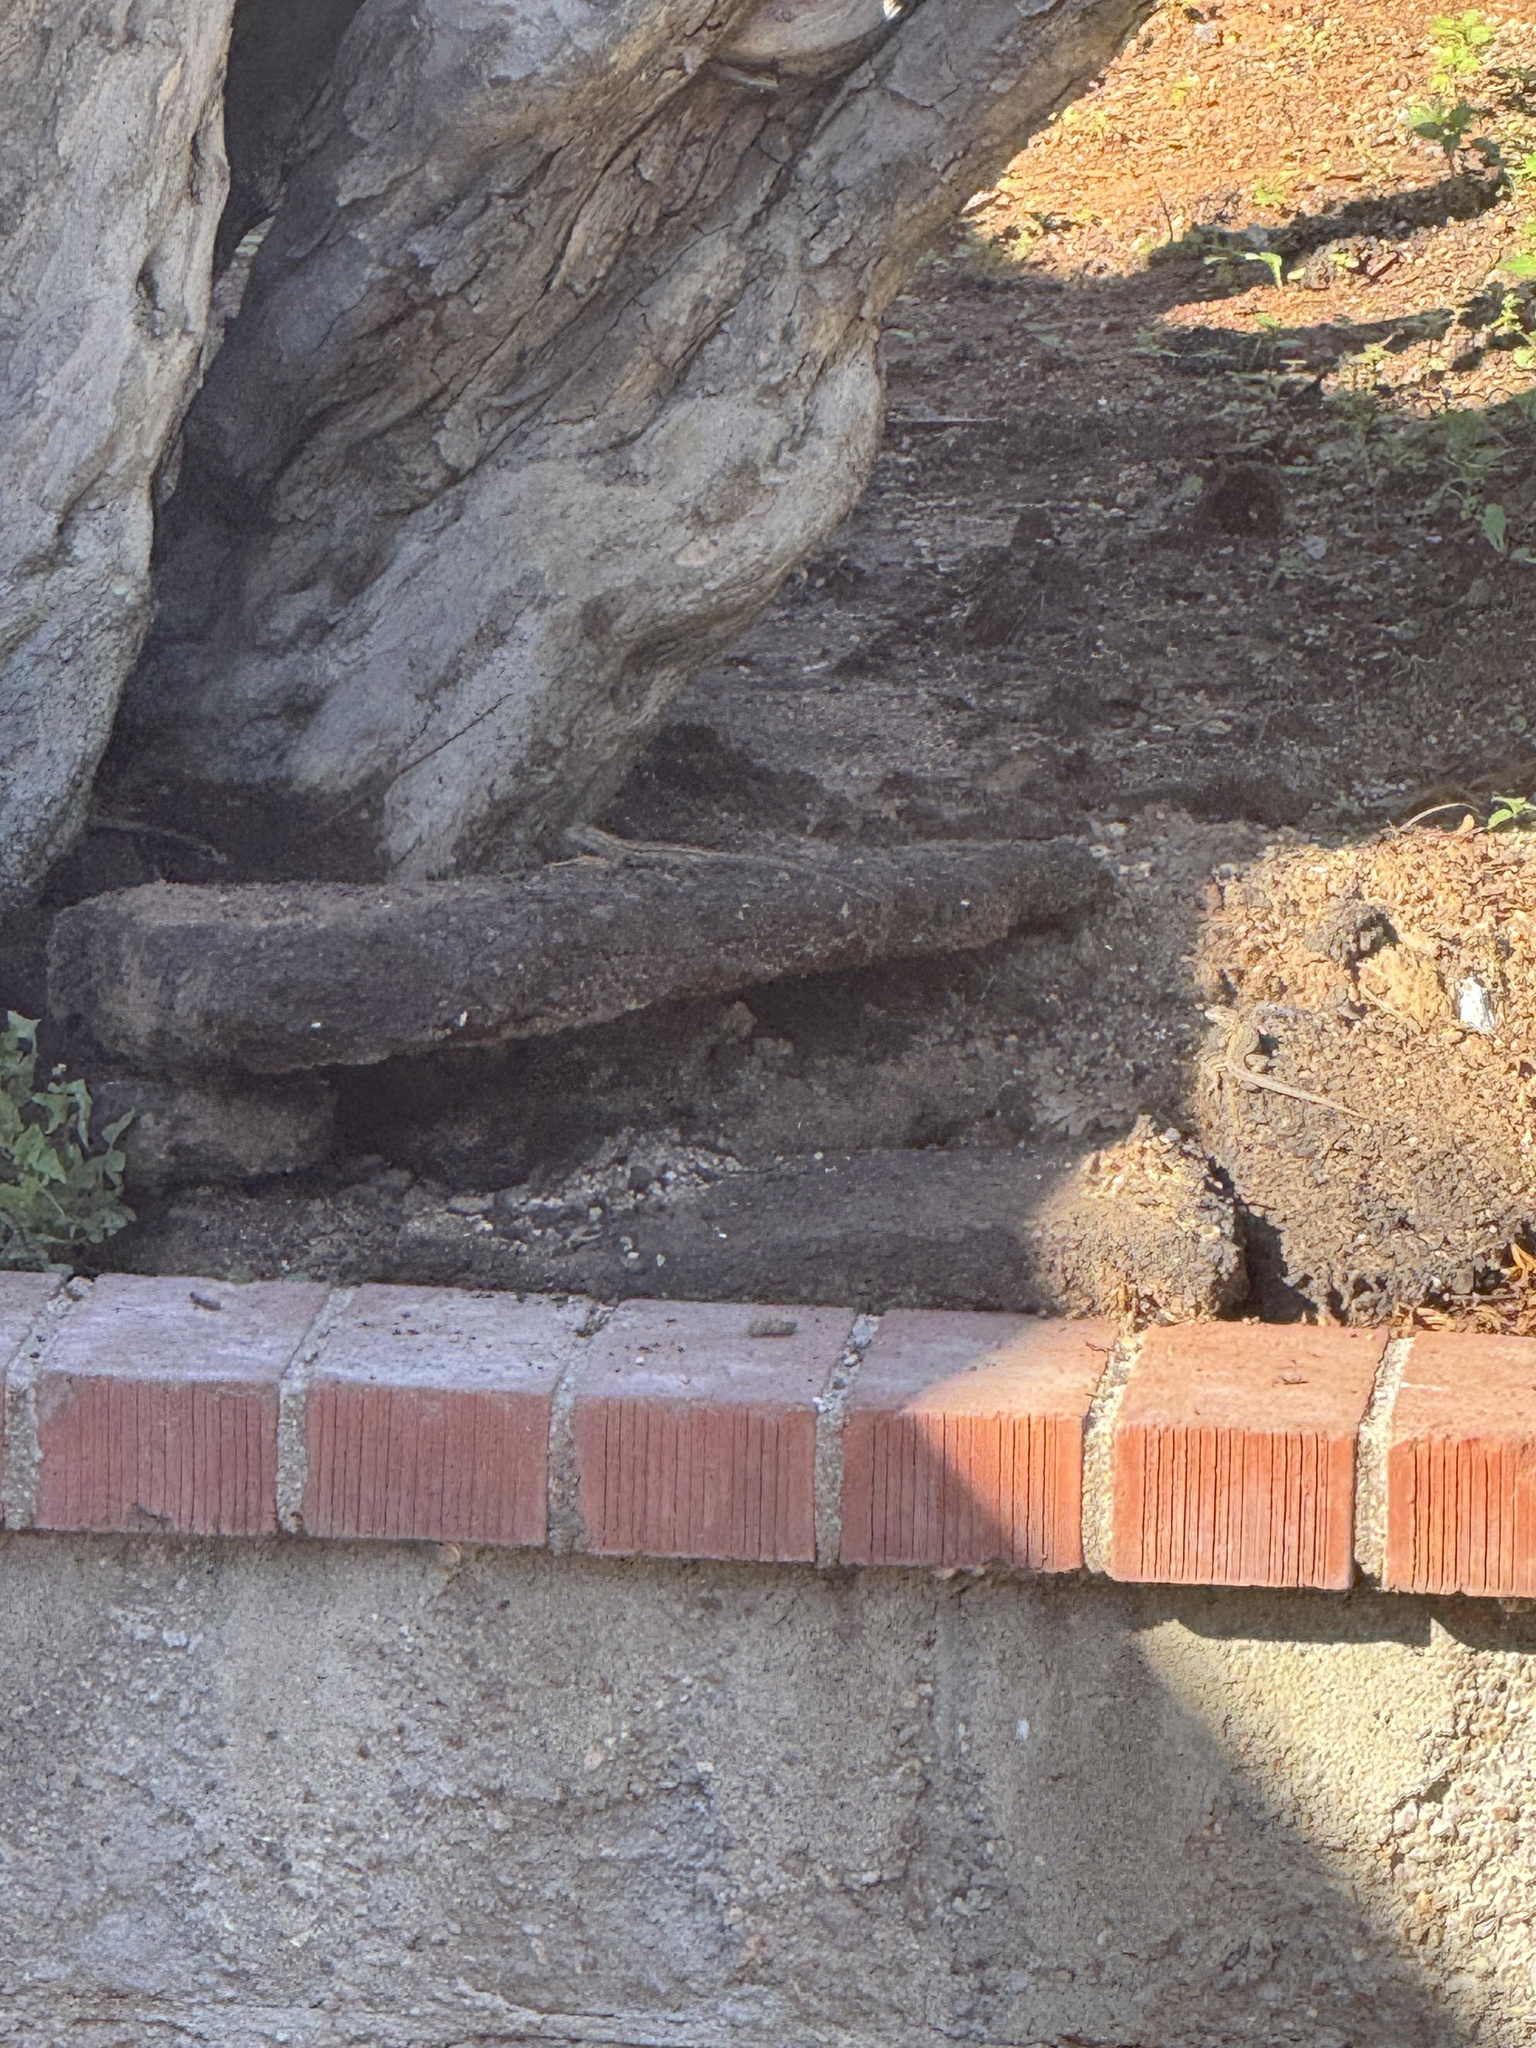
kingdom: Animalia
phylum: Chordata
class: Squamata
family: Phrynosomatidae
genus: Sceloporus
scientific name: Sceloporus occidentalis
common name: Western fence lizard
